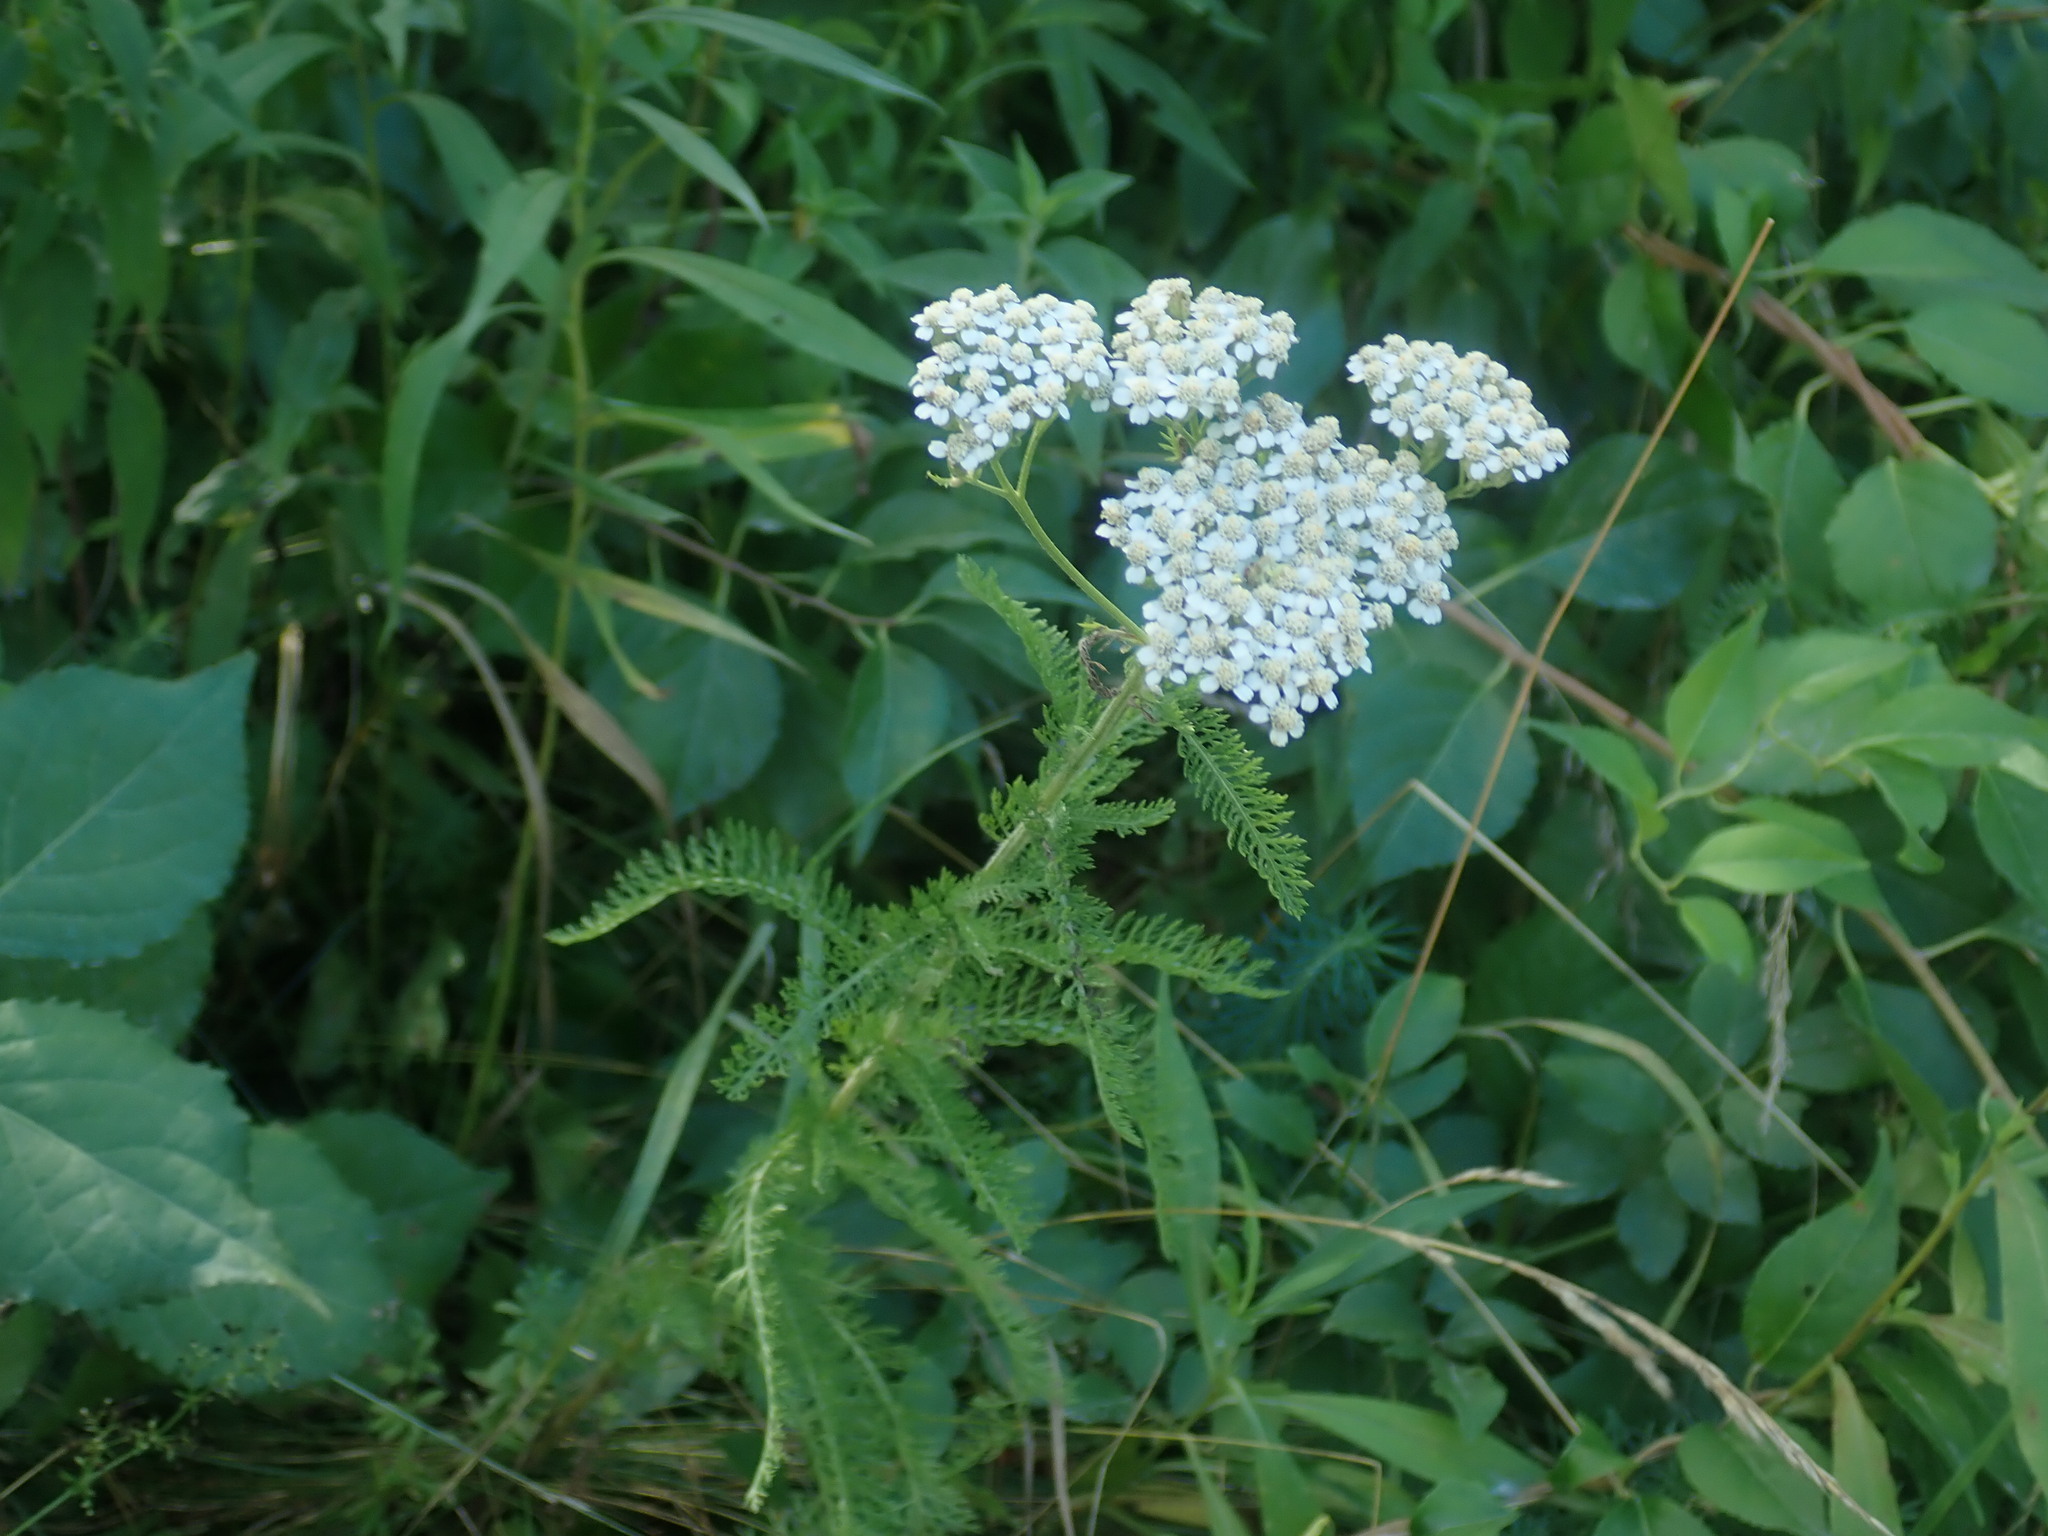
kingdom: Plantae
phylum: Tracheophyta
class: Magnoliopsida
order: Asterales
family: Asteraceae
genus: Achillea
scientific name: Achillea millefolium
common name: Yarrow
